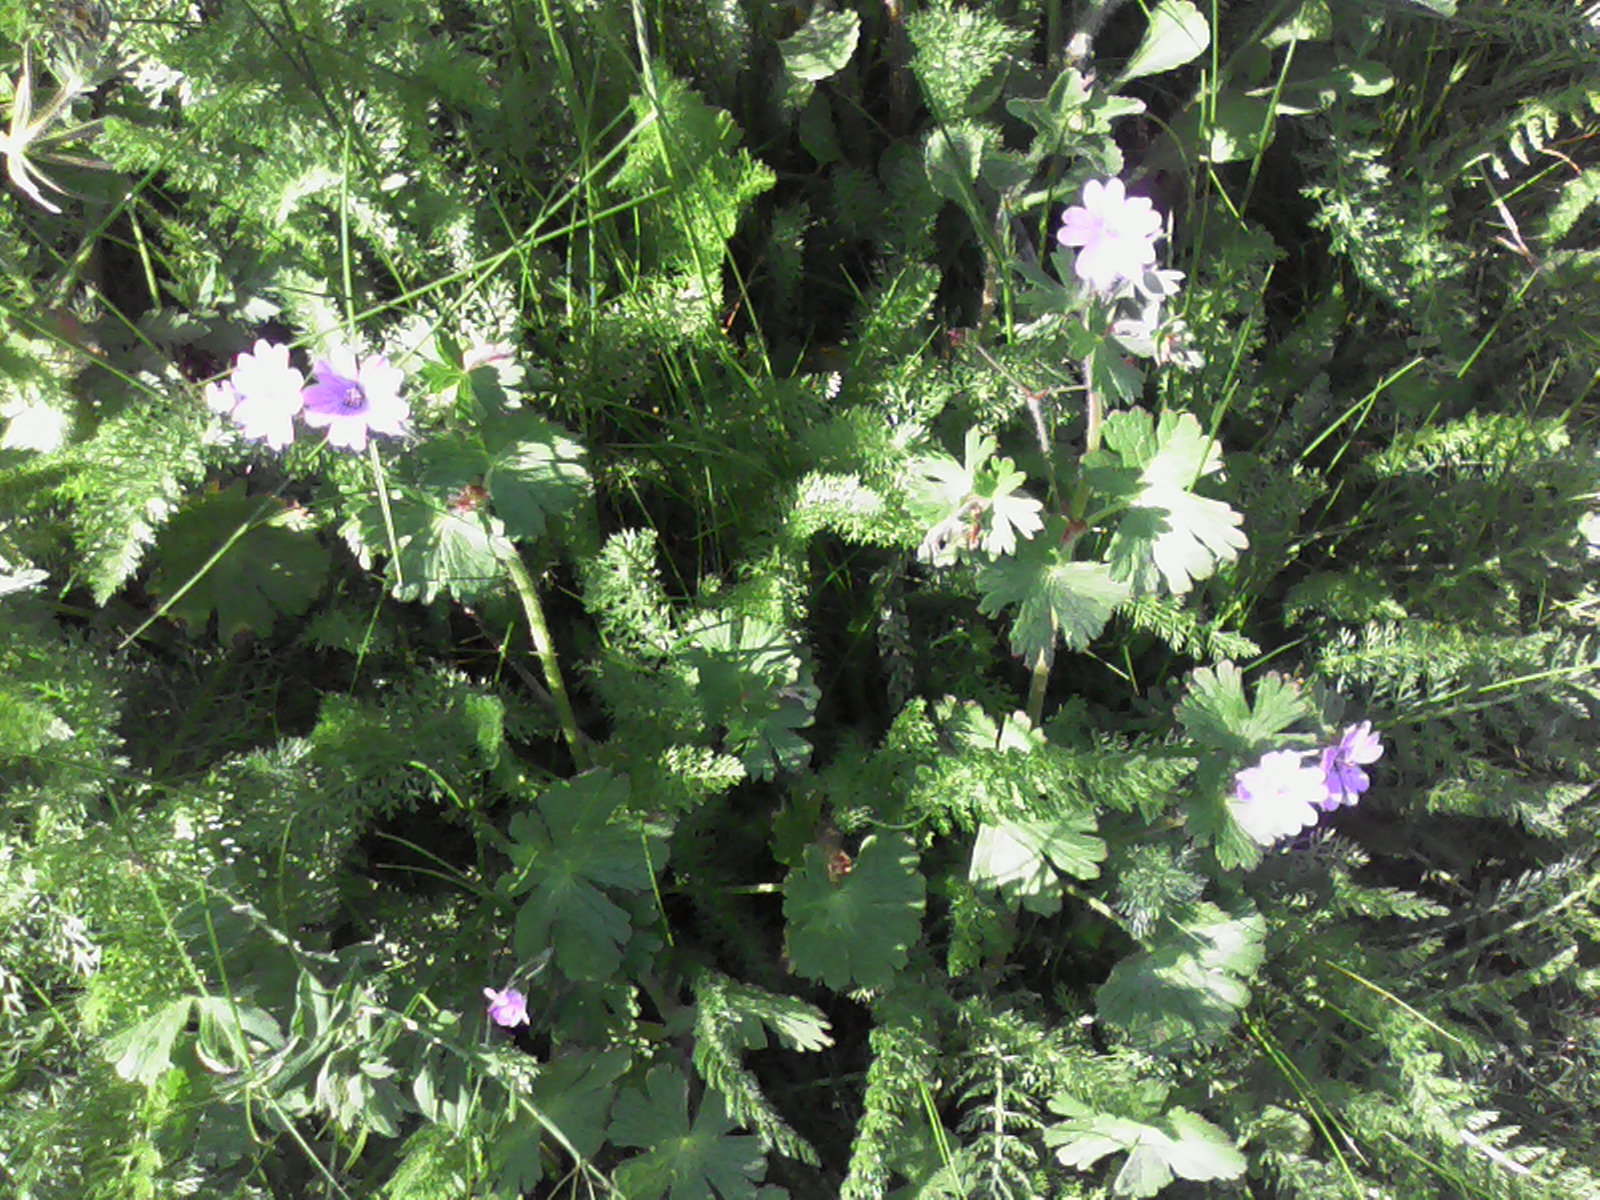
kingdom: Plantae
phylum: Tracheophyta
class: Magnoliopsida
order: Geraniales
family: Geraniaceae
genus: Geranium
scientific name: Geranium pyrenaicum
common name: Hedgerow crane's-bill
